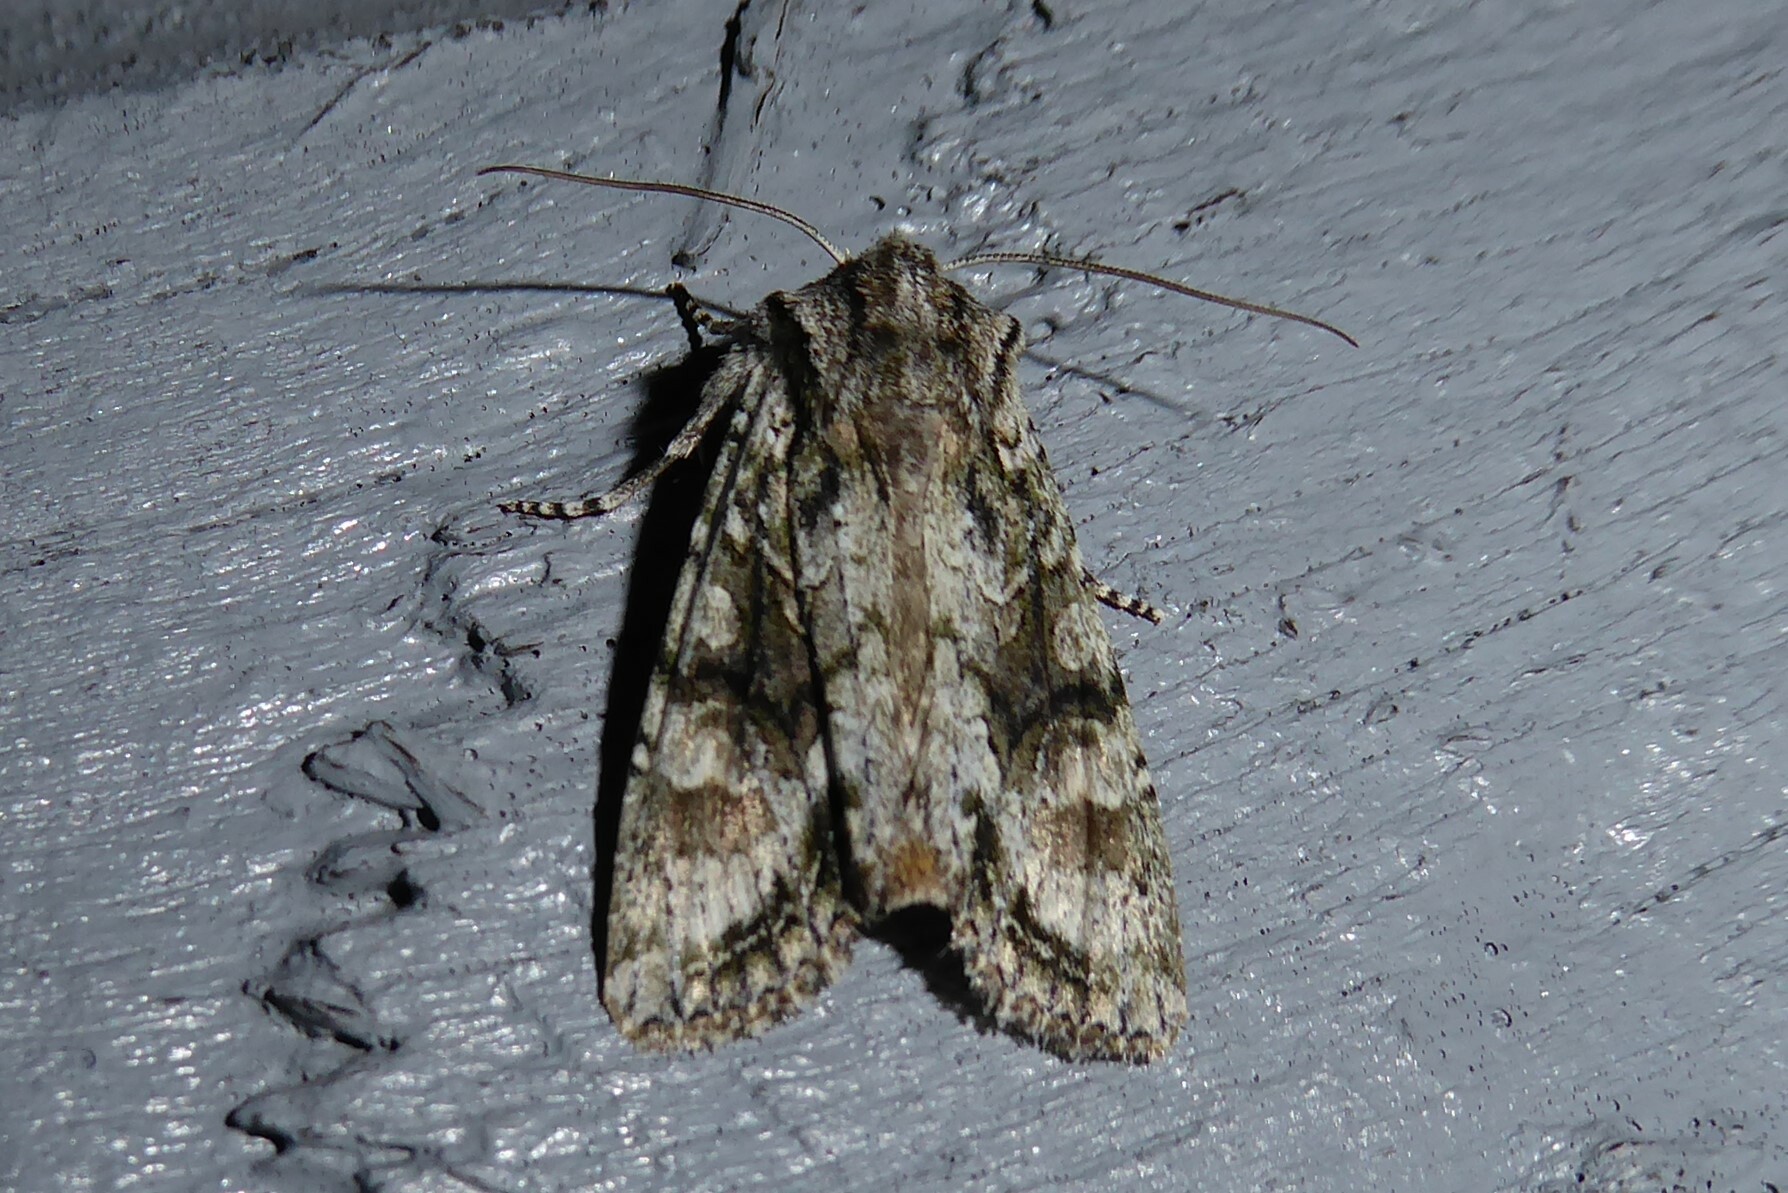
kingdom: Animalia
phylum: Arthropoda
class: Insecta
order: Lepidoptera
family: Noctuidae
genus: Ichneutica
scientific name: Ichneutica mutans
